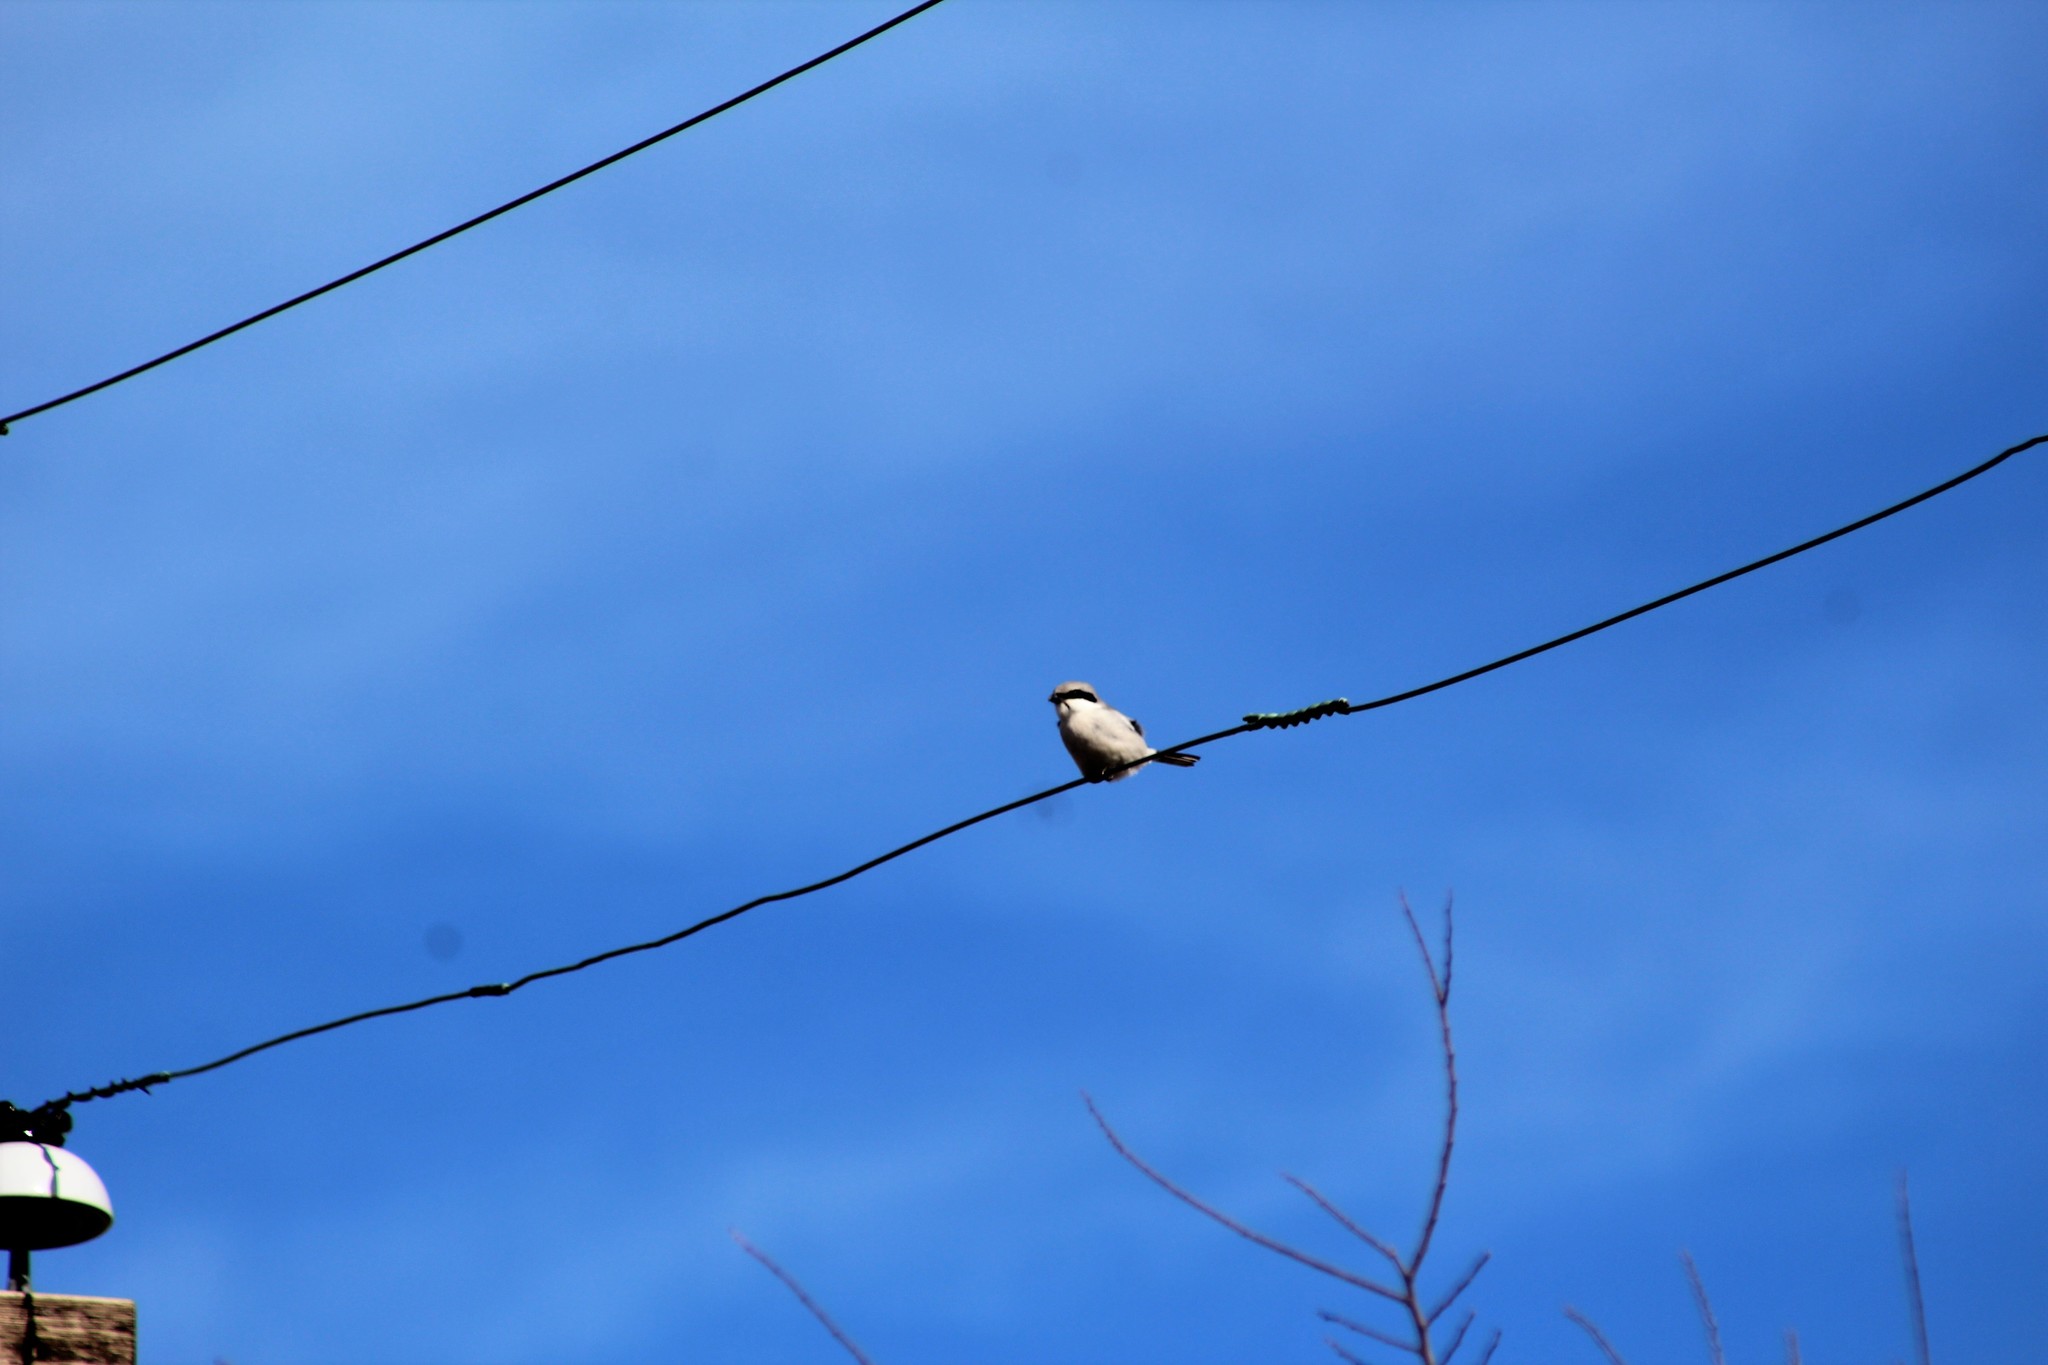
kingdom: Animalia
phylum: Chordata
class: Aves
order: Passeriformes
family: Laniidae
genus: Lanius
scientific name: Lanius ludovicianus
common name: Loggerhead shrike
